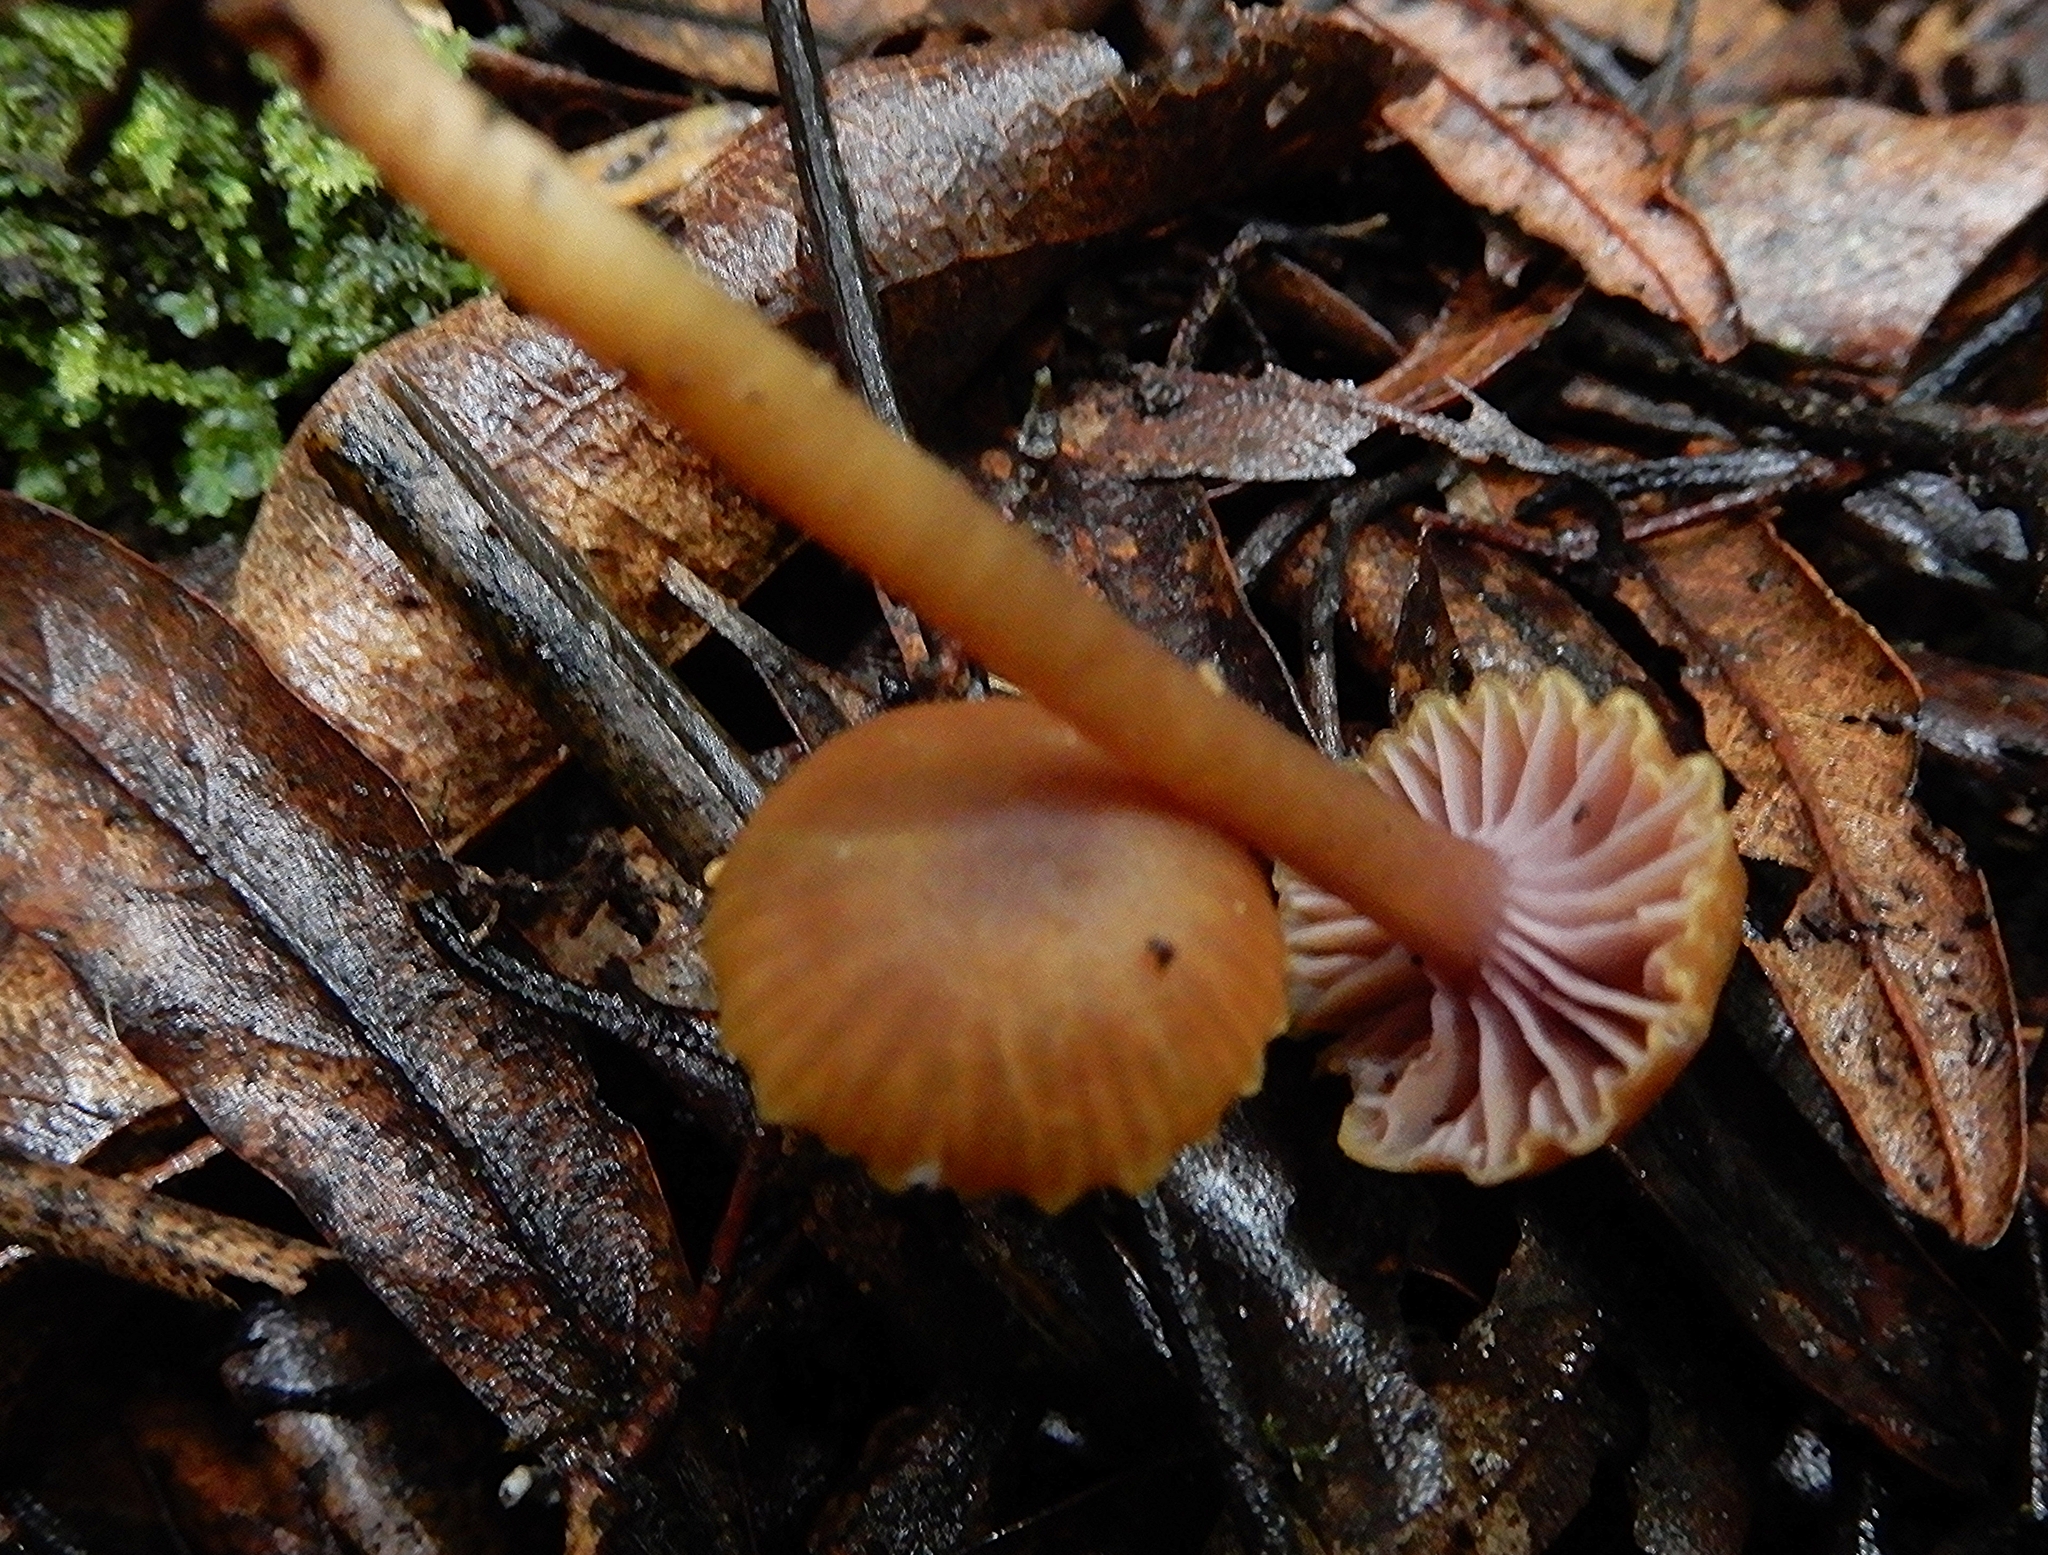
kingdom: Fungi
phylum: Basidiomycota
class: Agaricomycetes
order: Agaricales
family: Hygrophoraceae
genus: Hygrocybe
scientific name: Hygrocybe lilaceolamellata
